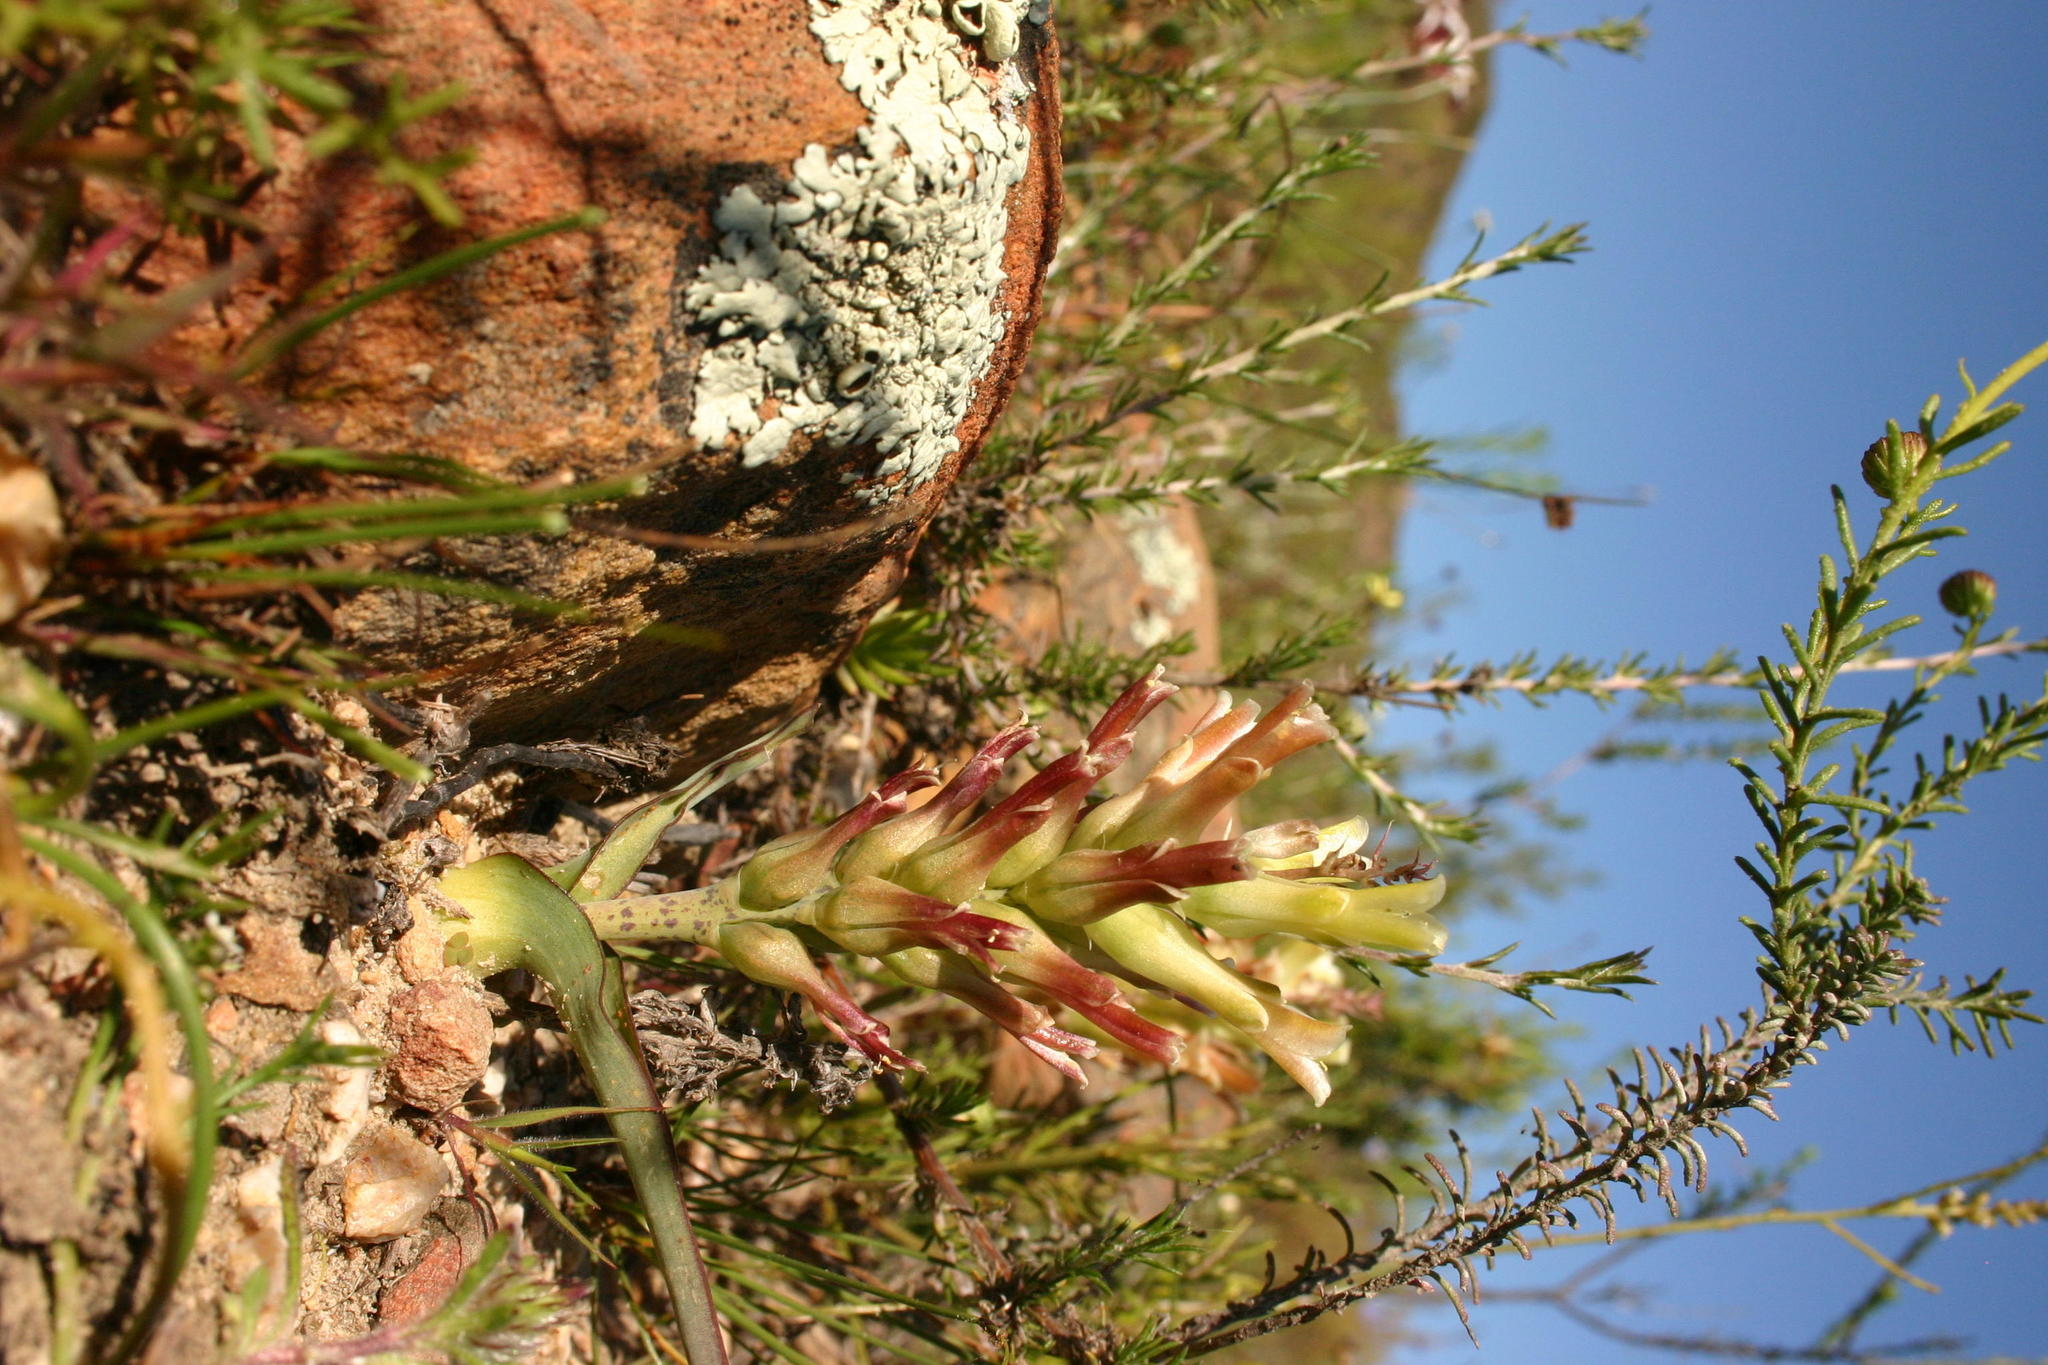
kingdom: Plantae
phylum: Tracheophyta
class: Liliopsida
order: Asparagales
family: Asparagaceae
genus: Lachenalia
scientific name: Lachenalia orchioides
